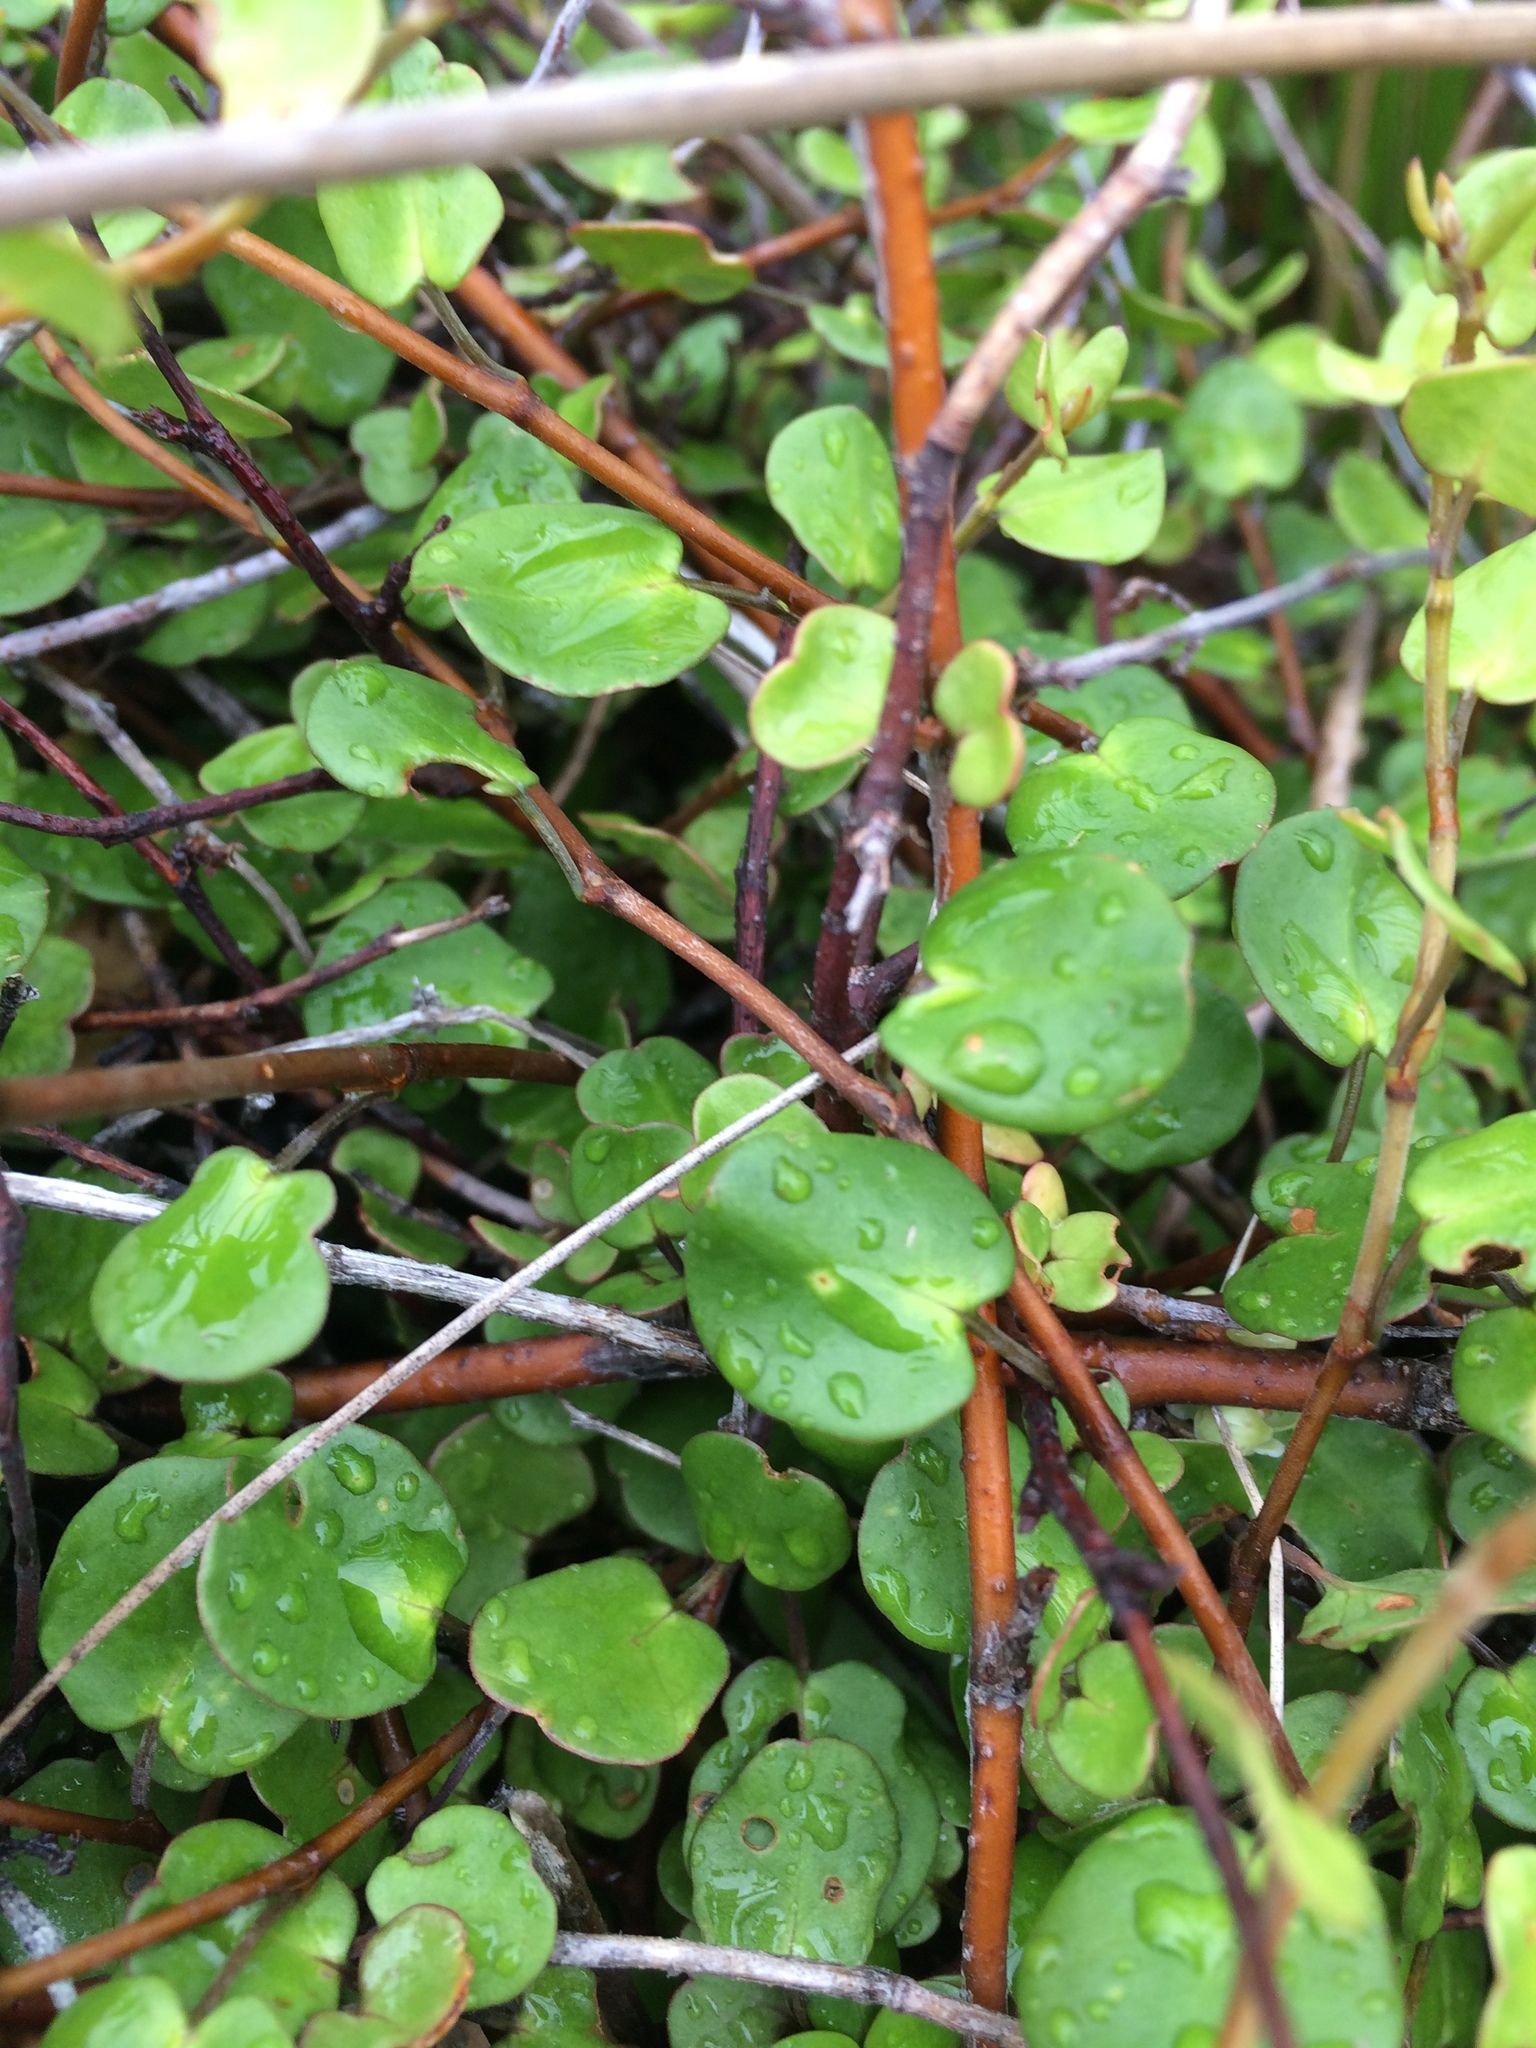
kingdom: Plantae
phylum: Tracheophyta
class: Magnoliopsida
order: Caryophyllales
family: Polygonaceae
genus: Muehlenbeckia
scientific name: Muehlenbeckia complexa
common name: Wireplant
